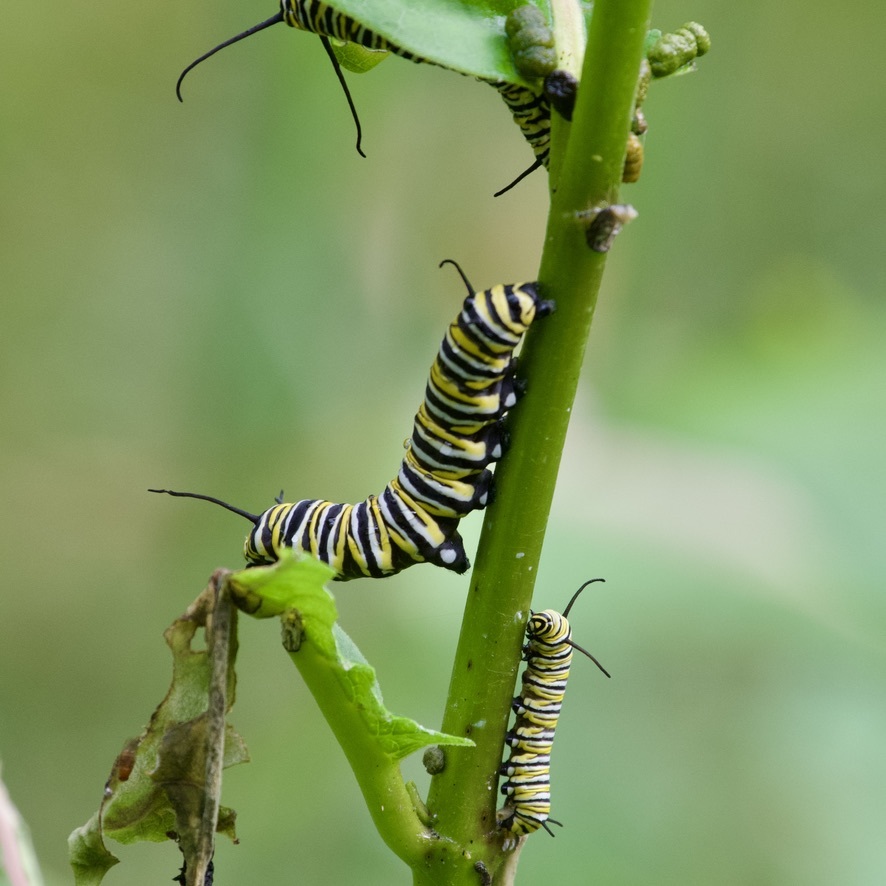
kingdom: Animalia
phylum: Arthropoda
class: Insecta
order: Lepidoptera
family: Nymphalidae
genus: Danaus
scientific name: Danaus plexippus
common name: Monarch
